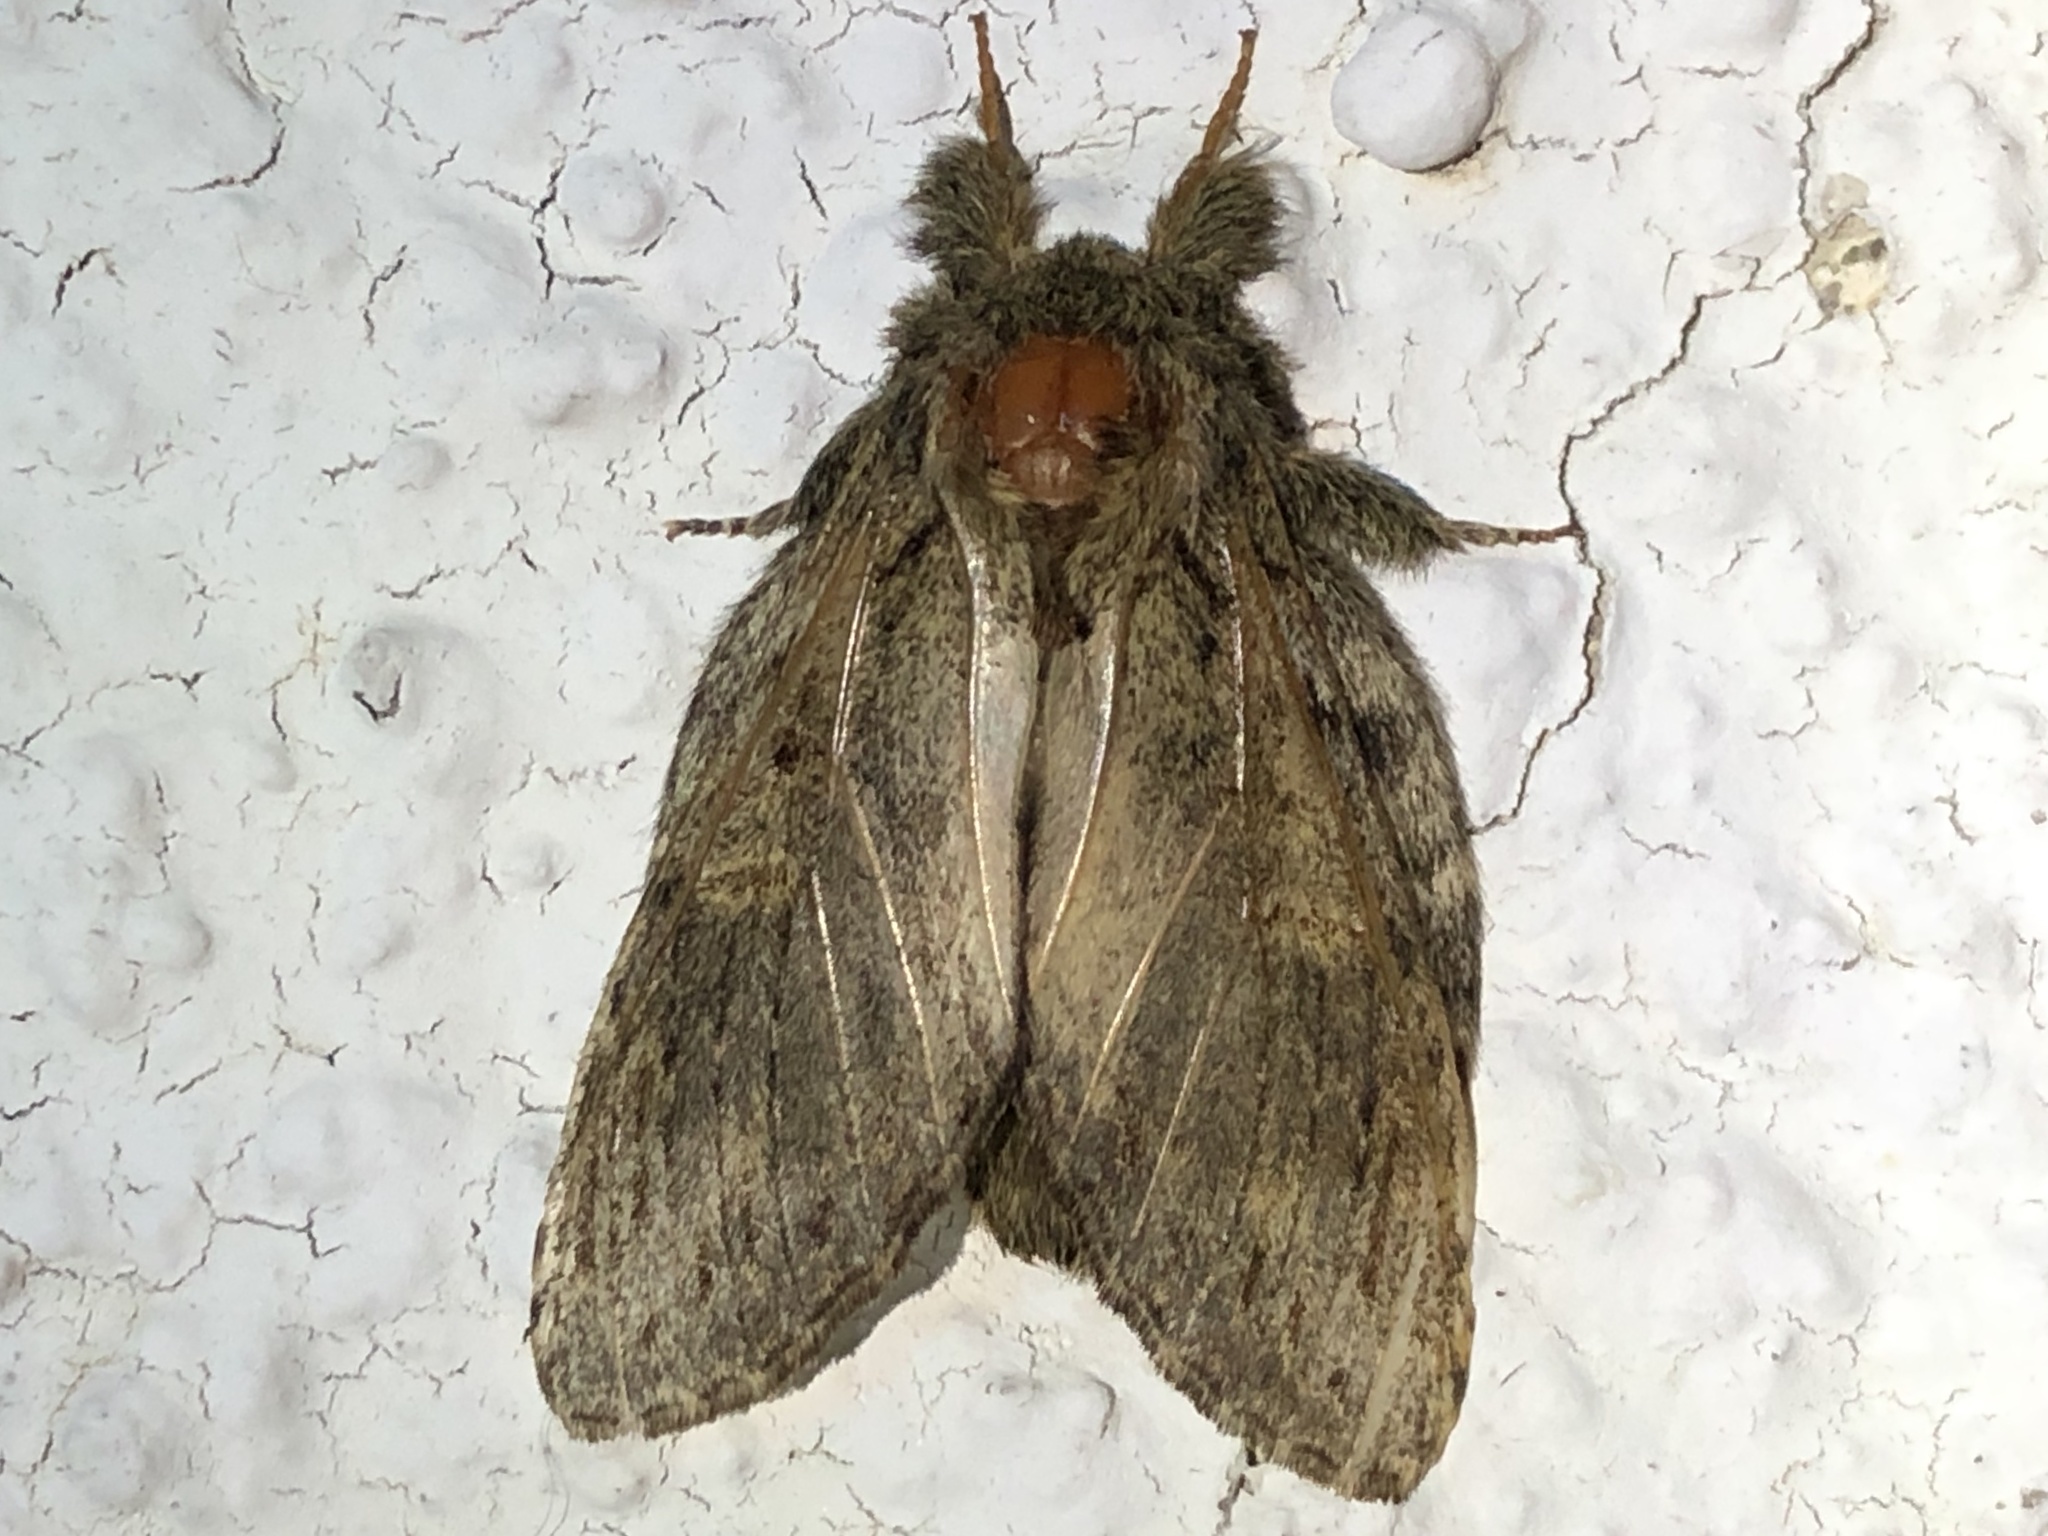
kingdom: Animalia
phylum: Arthropoda
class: Insecta
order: Lepidoptera
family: Notodontidae
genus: Peridea
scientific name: Peridea anceps
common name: Great prominent
